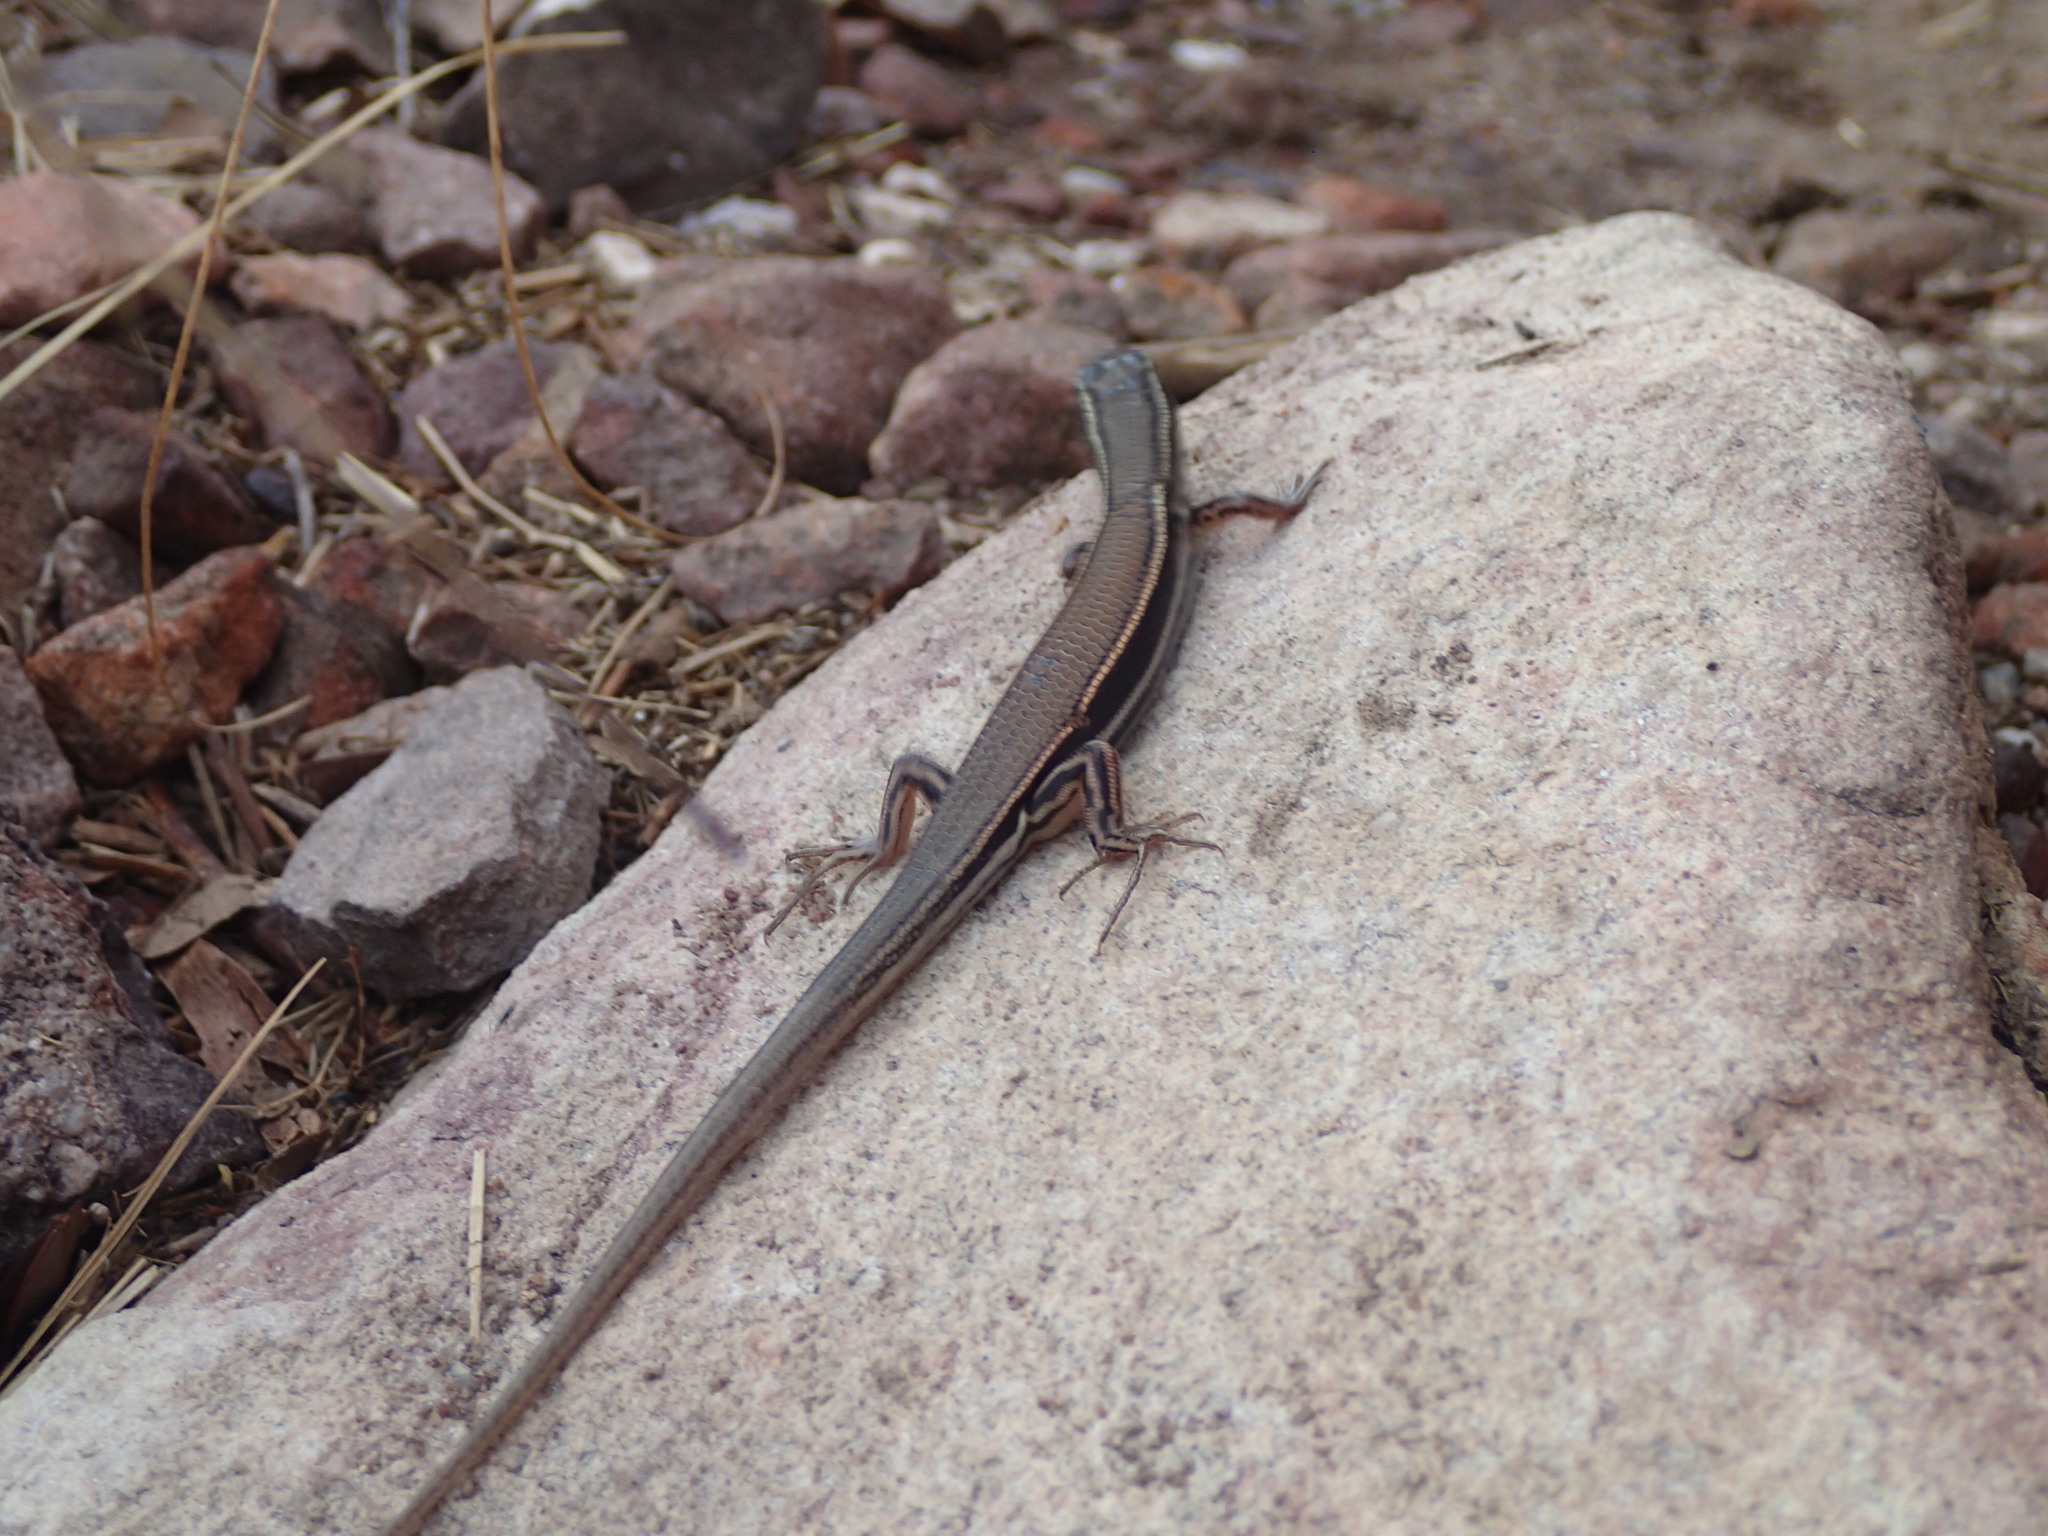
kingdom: Animalia
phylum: Chordata
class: Squamata
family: Scincidae
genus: Ctenotus
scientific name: Ctenotus essingtonii
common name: Lowlands plain-backed ctenotus
